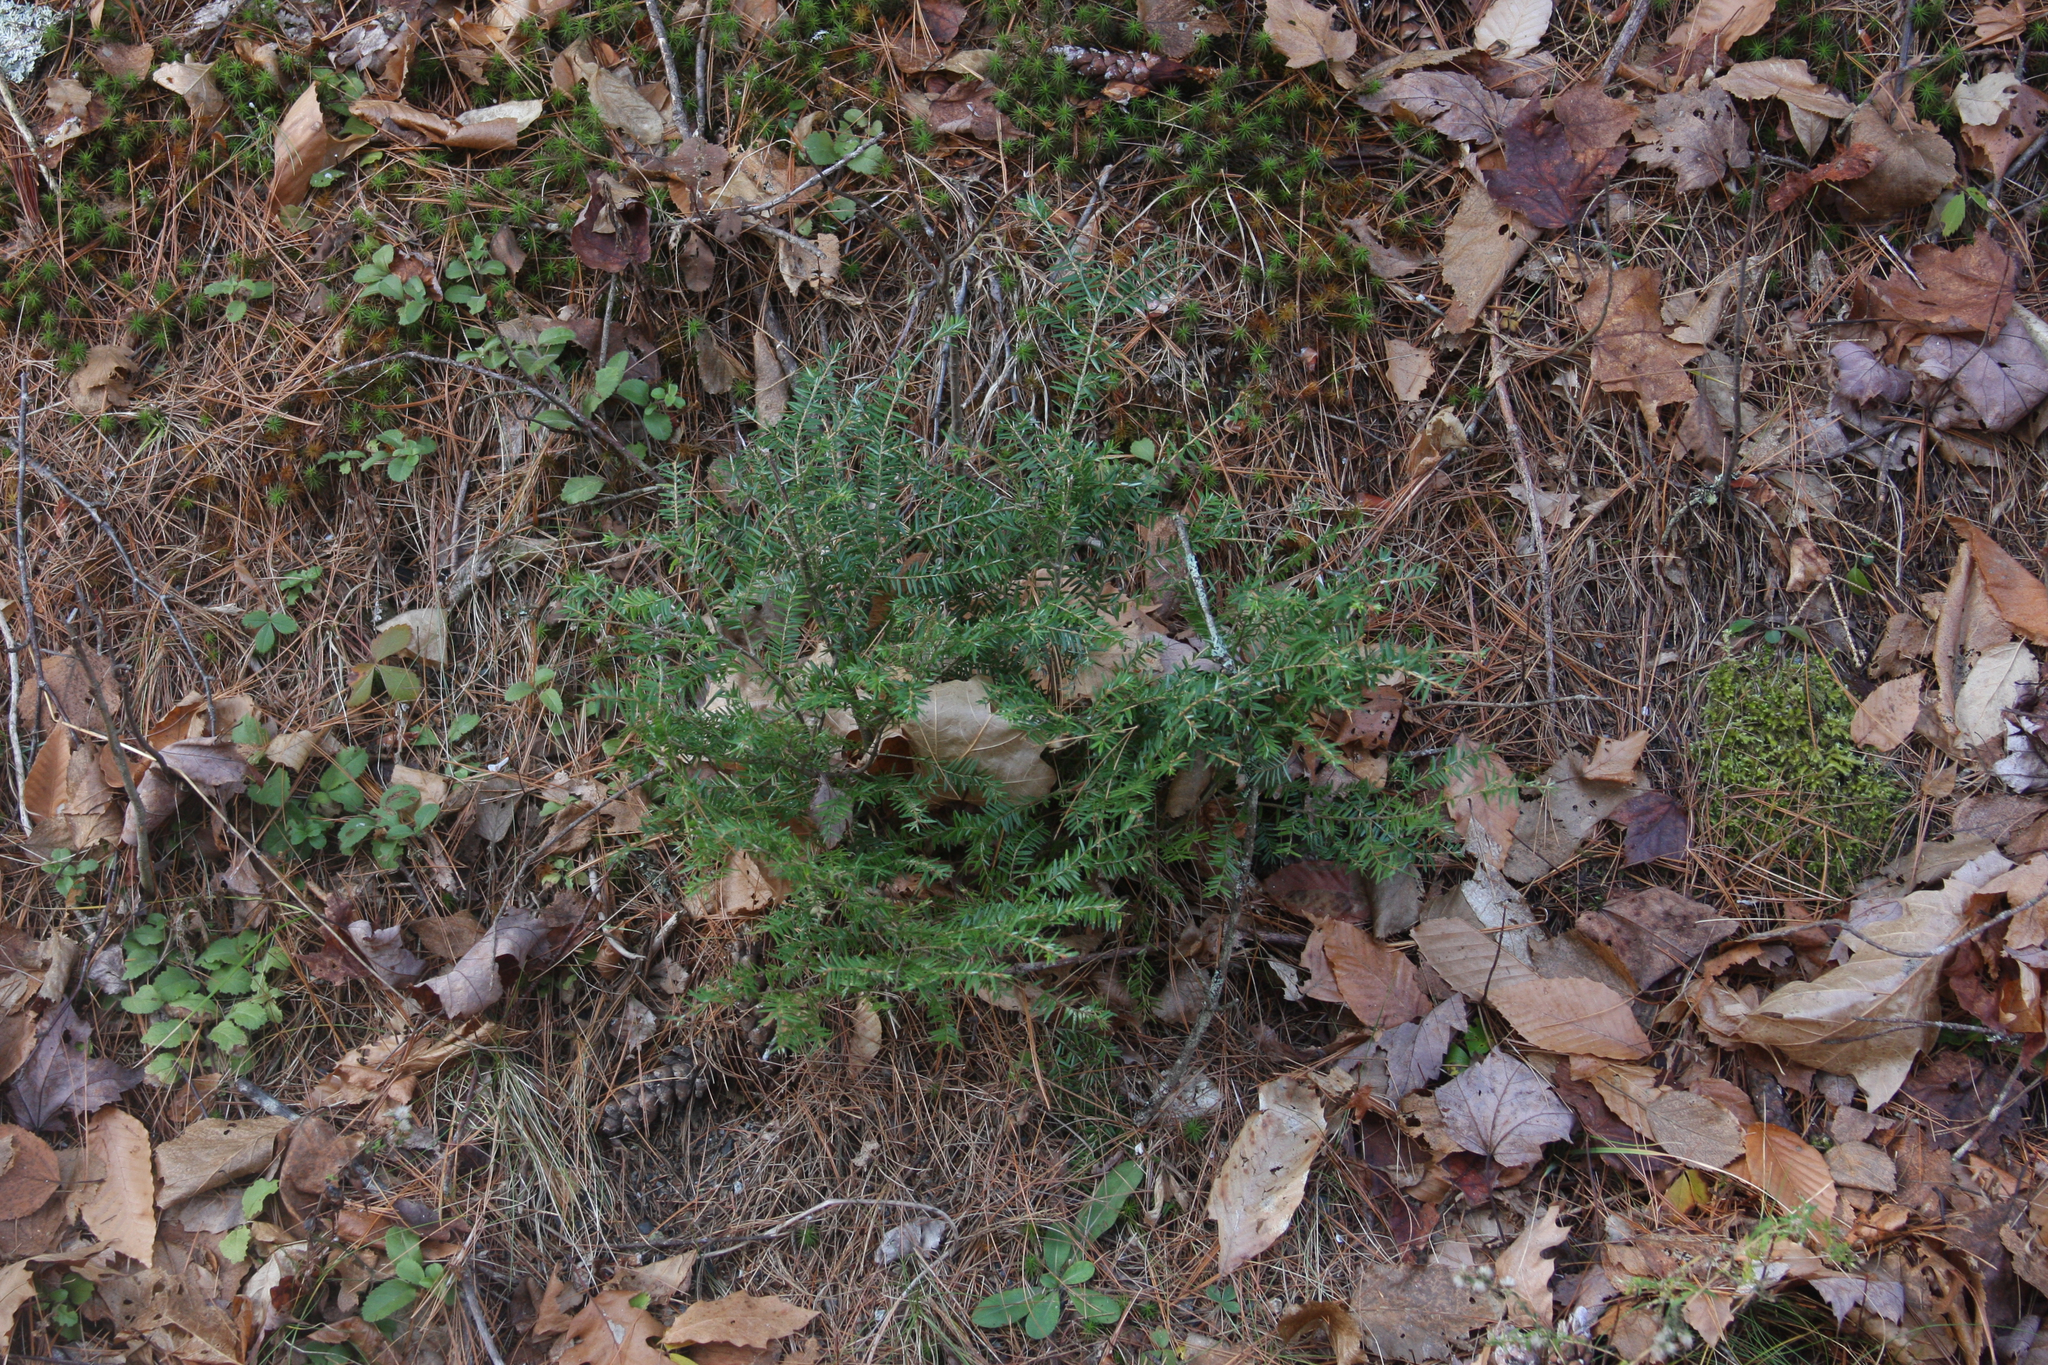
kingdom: Plantae
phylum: Tracheophyta
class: Pinopsida
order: Pinales
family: Pinaceae
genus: Tsuga
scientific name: Tsuga canadensis
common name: Eastern hemlock
